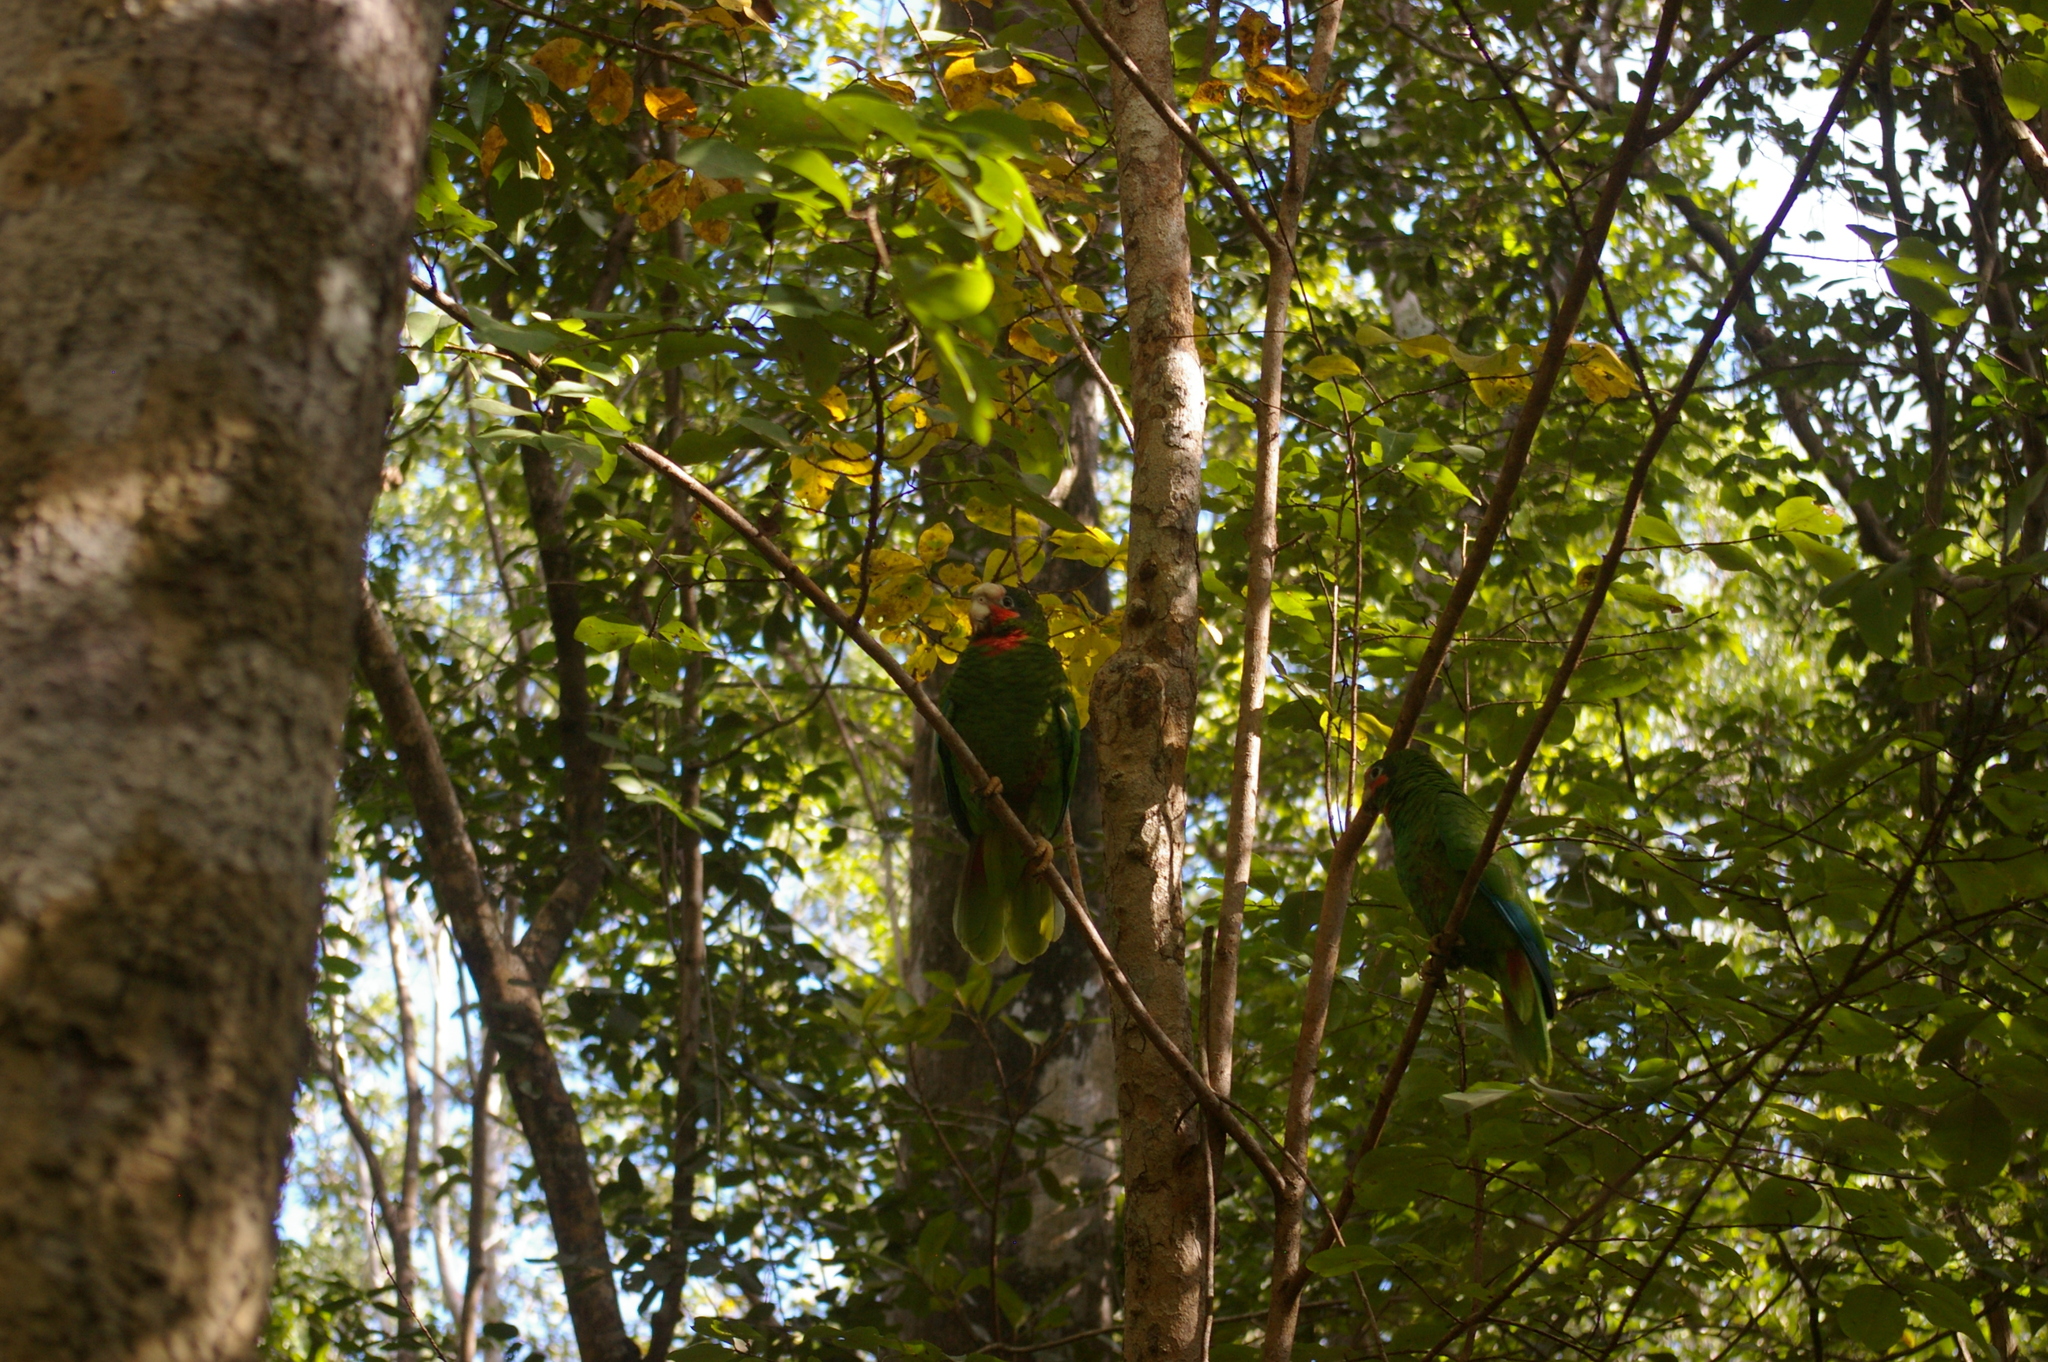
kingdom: Animalia
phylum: Chordata
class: Aves
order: Psittaciformes
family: Psittacidae
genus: Amazona
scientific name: Amazona leucocephala
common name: Cuban amazon
